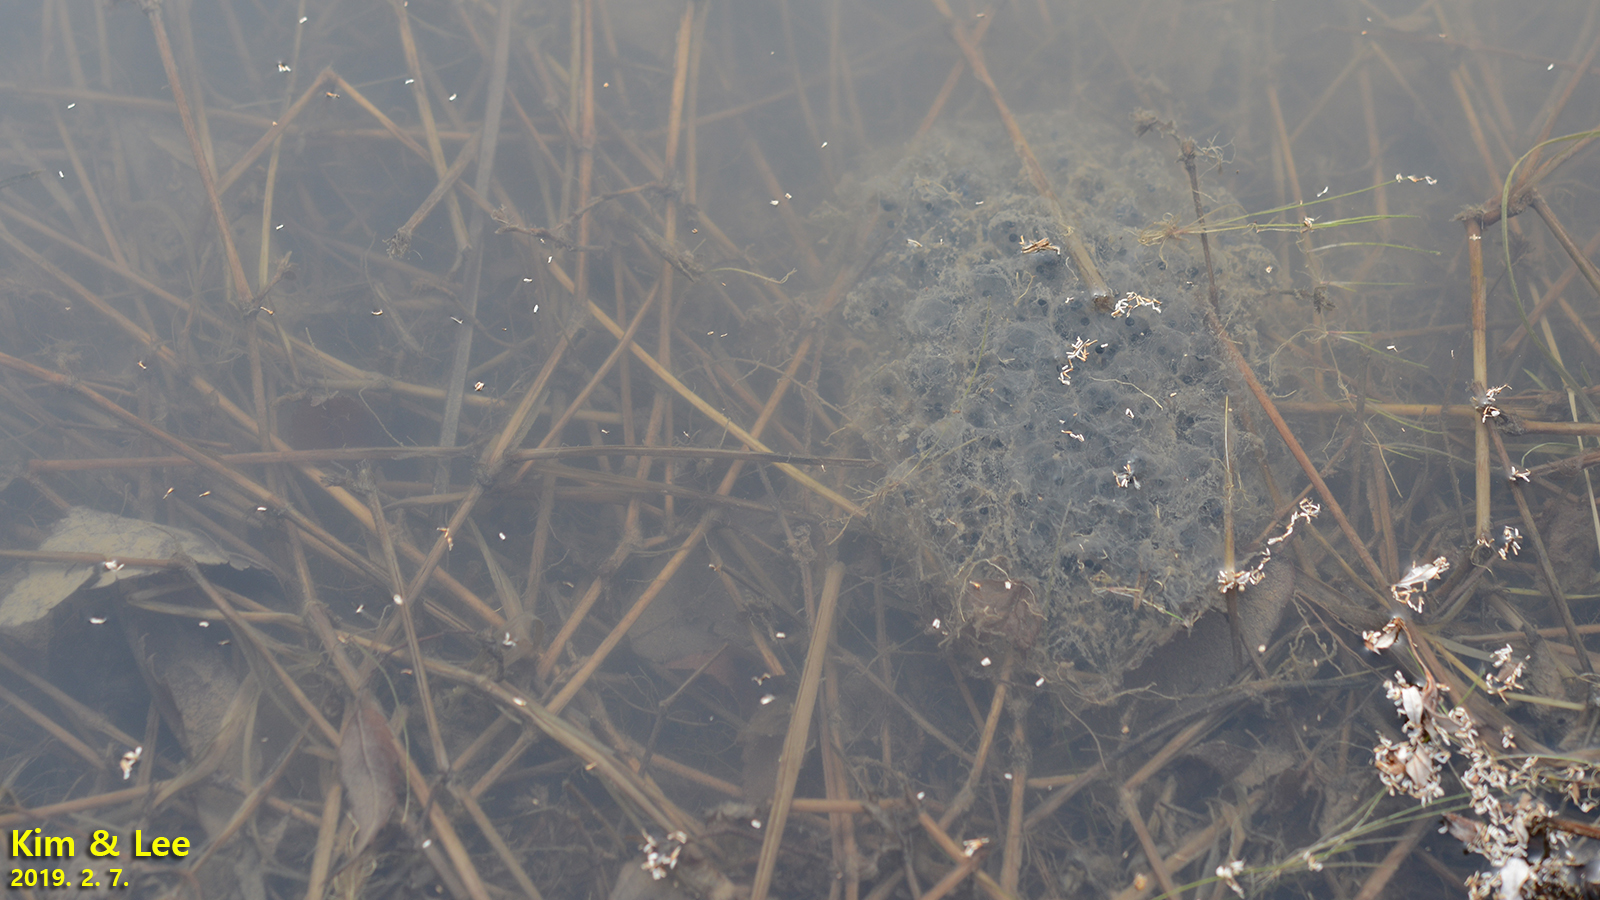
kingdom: Animalia
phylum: Chordata
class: Amphibia
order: Anura
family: Ranidae
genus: Rana
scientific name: Rana uenoi
